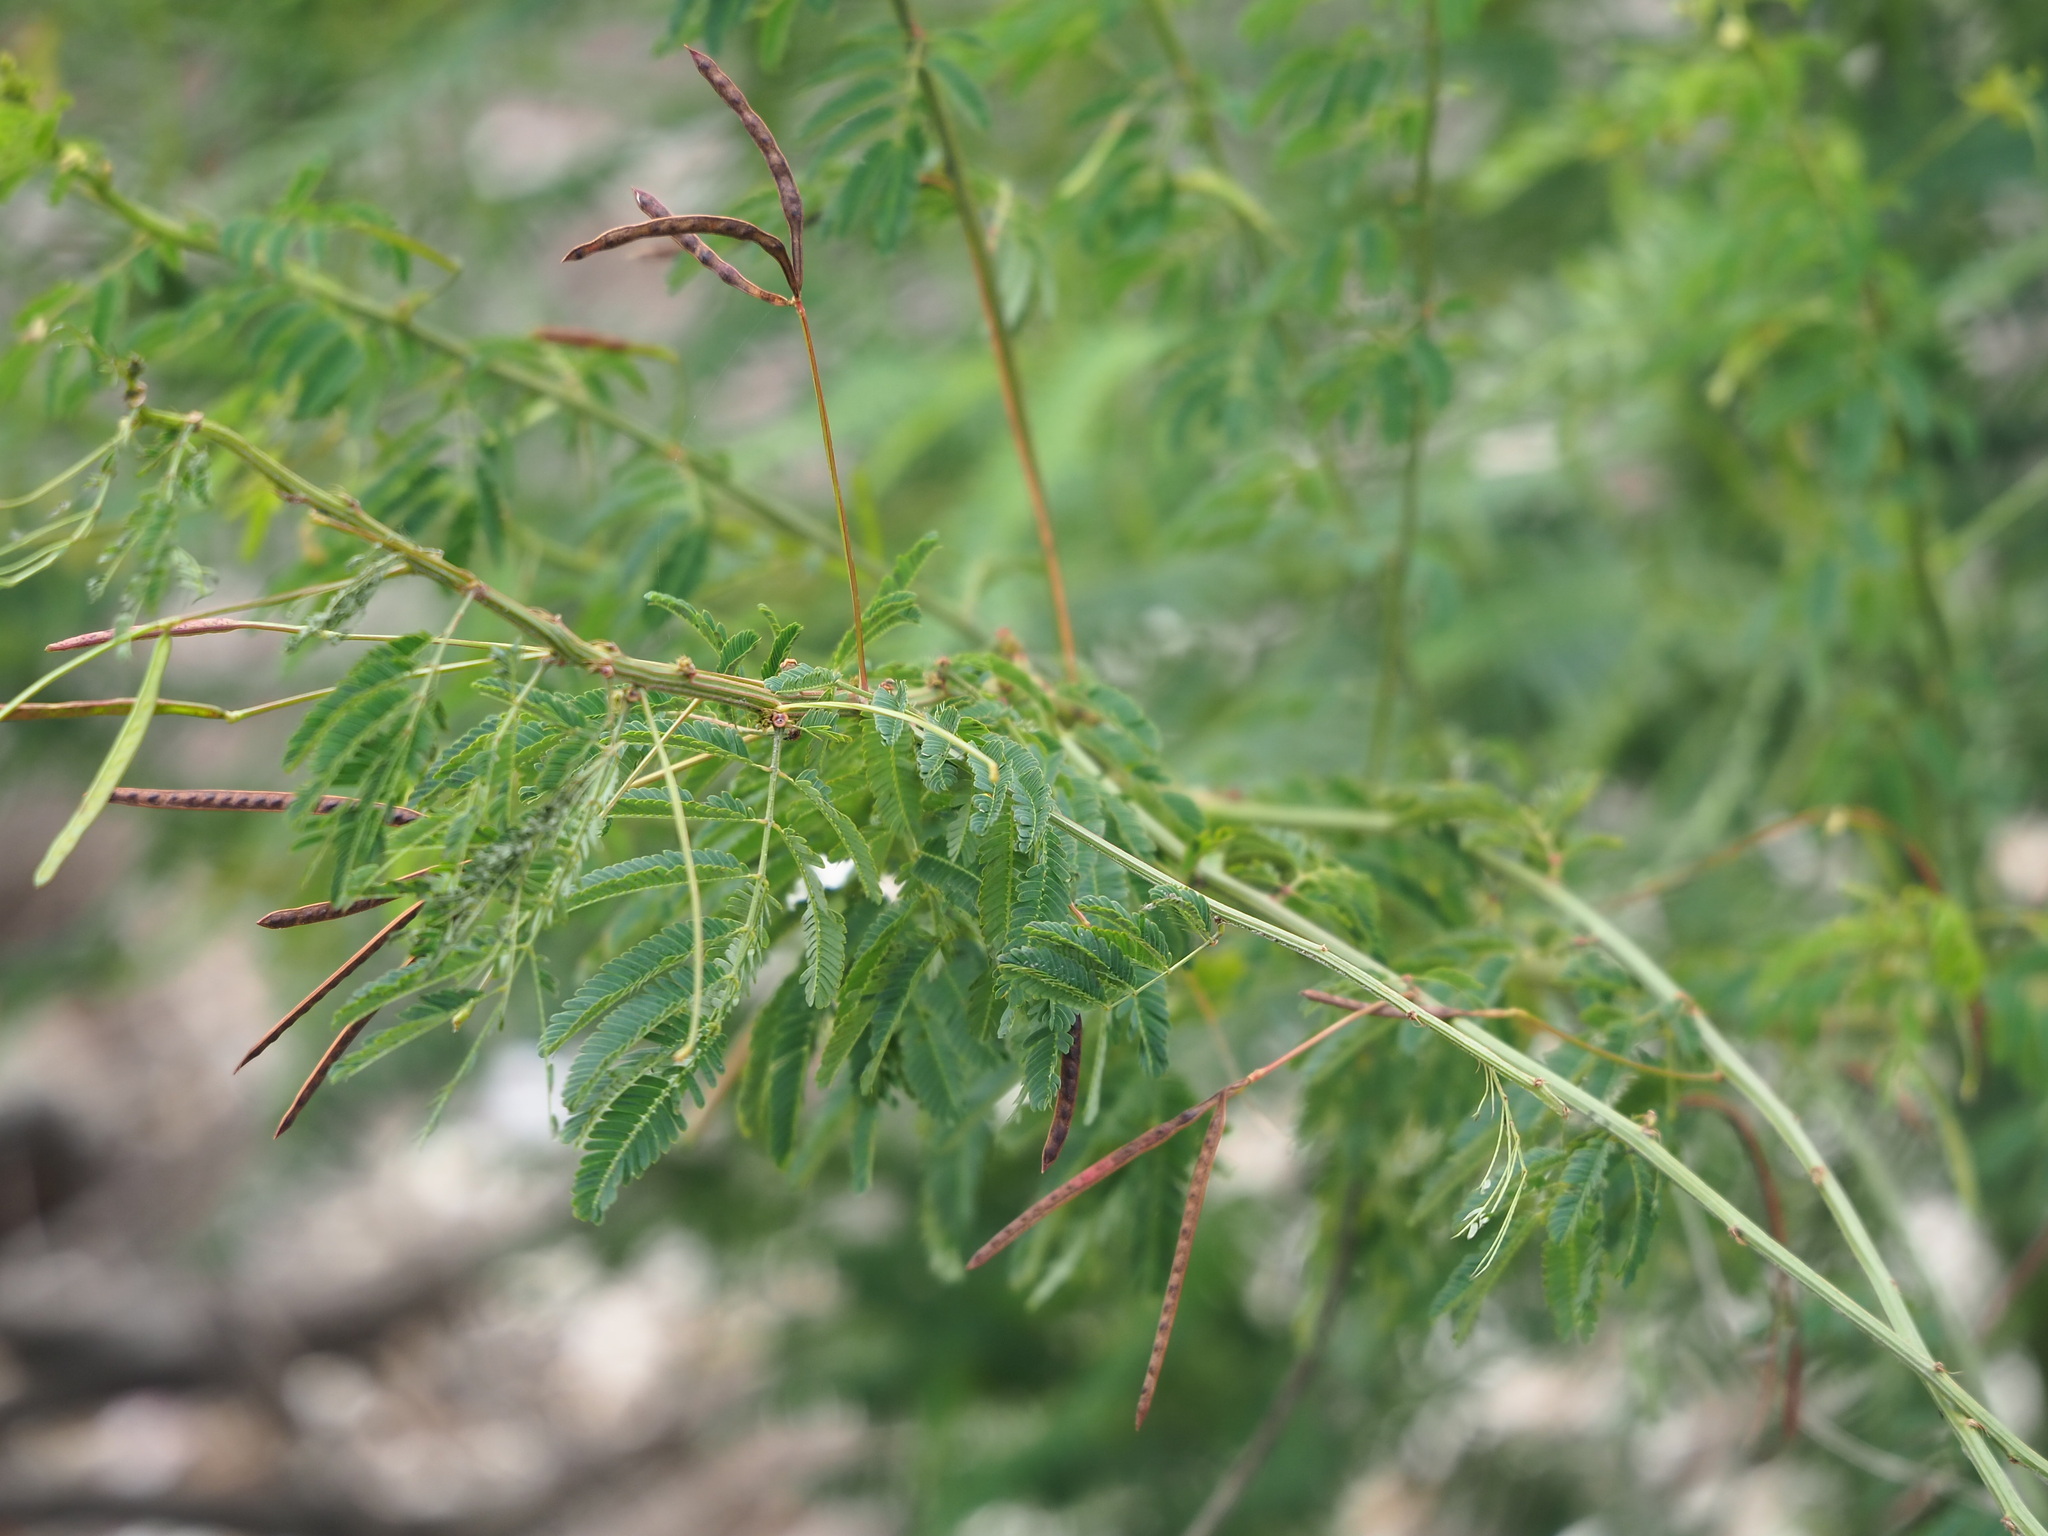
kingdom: Plantae
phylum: Tracheophyta
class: Magnoliopsida
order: Fabales
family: Fabaceae
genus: Desmanthus
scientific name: Desmanthus virgatus
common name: Wild tantan
